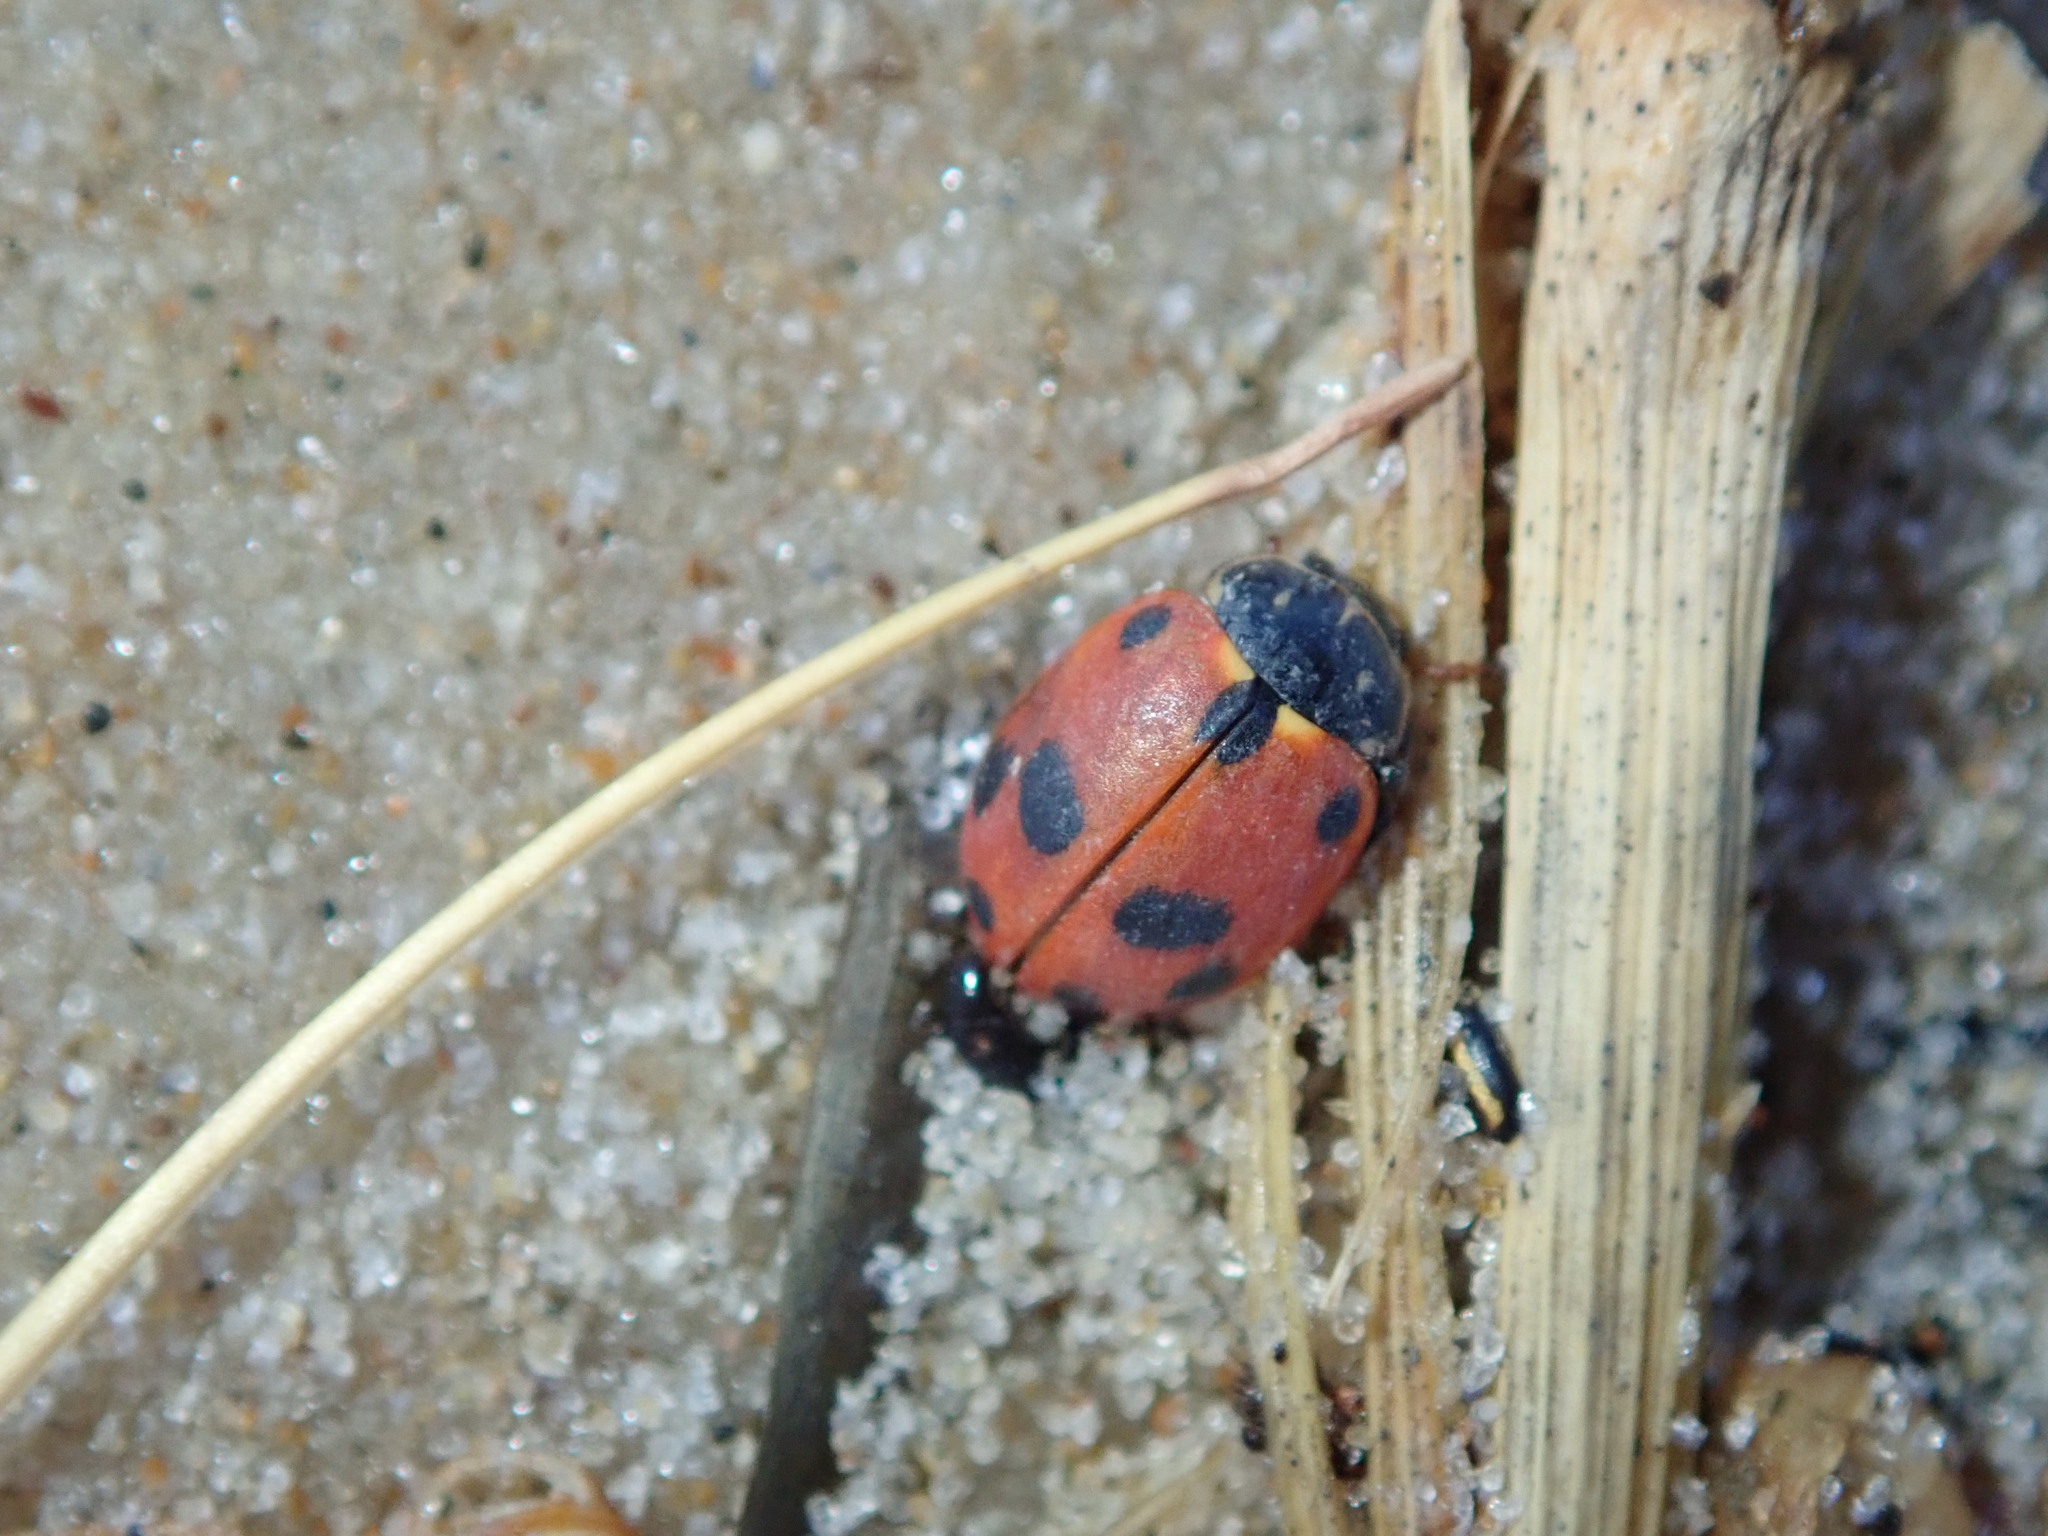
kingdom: Animalia
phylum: Arthropoda
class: Insecta
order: Coleoptera
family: Coccinellidae
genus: Hippodamia
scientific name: Hippodamia variegata
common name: Ladybird beetle
